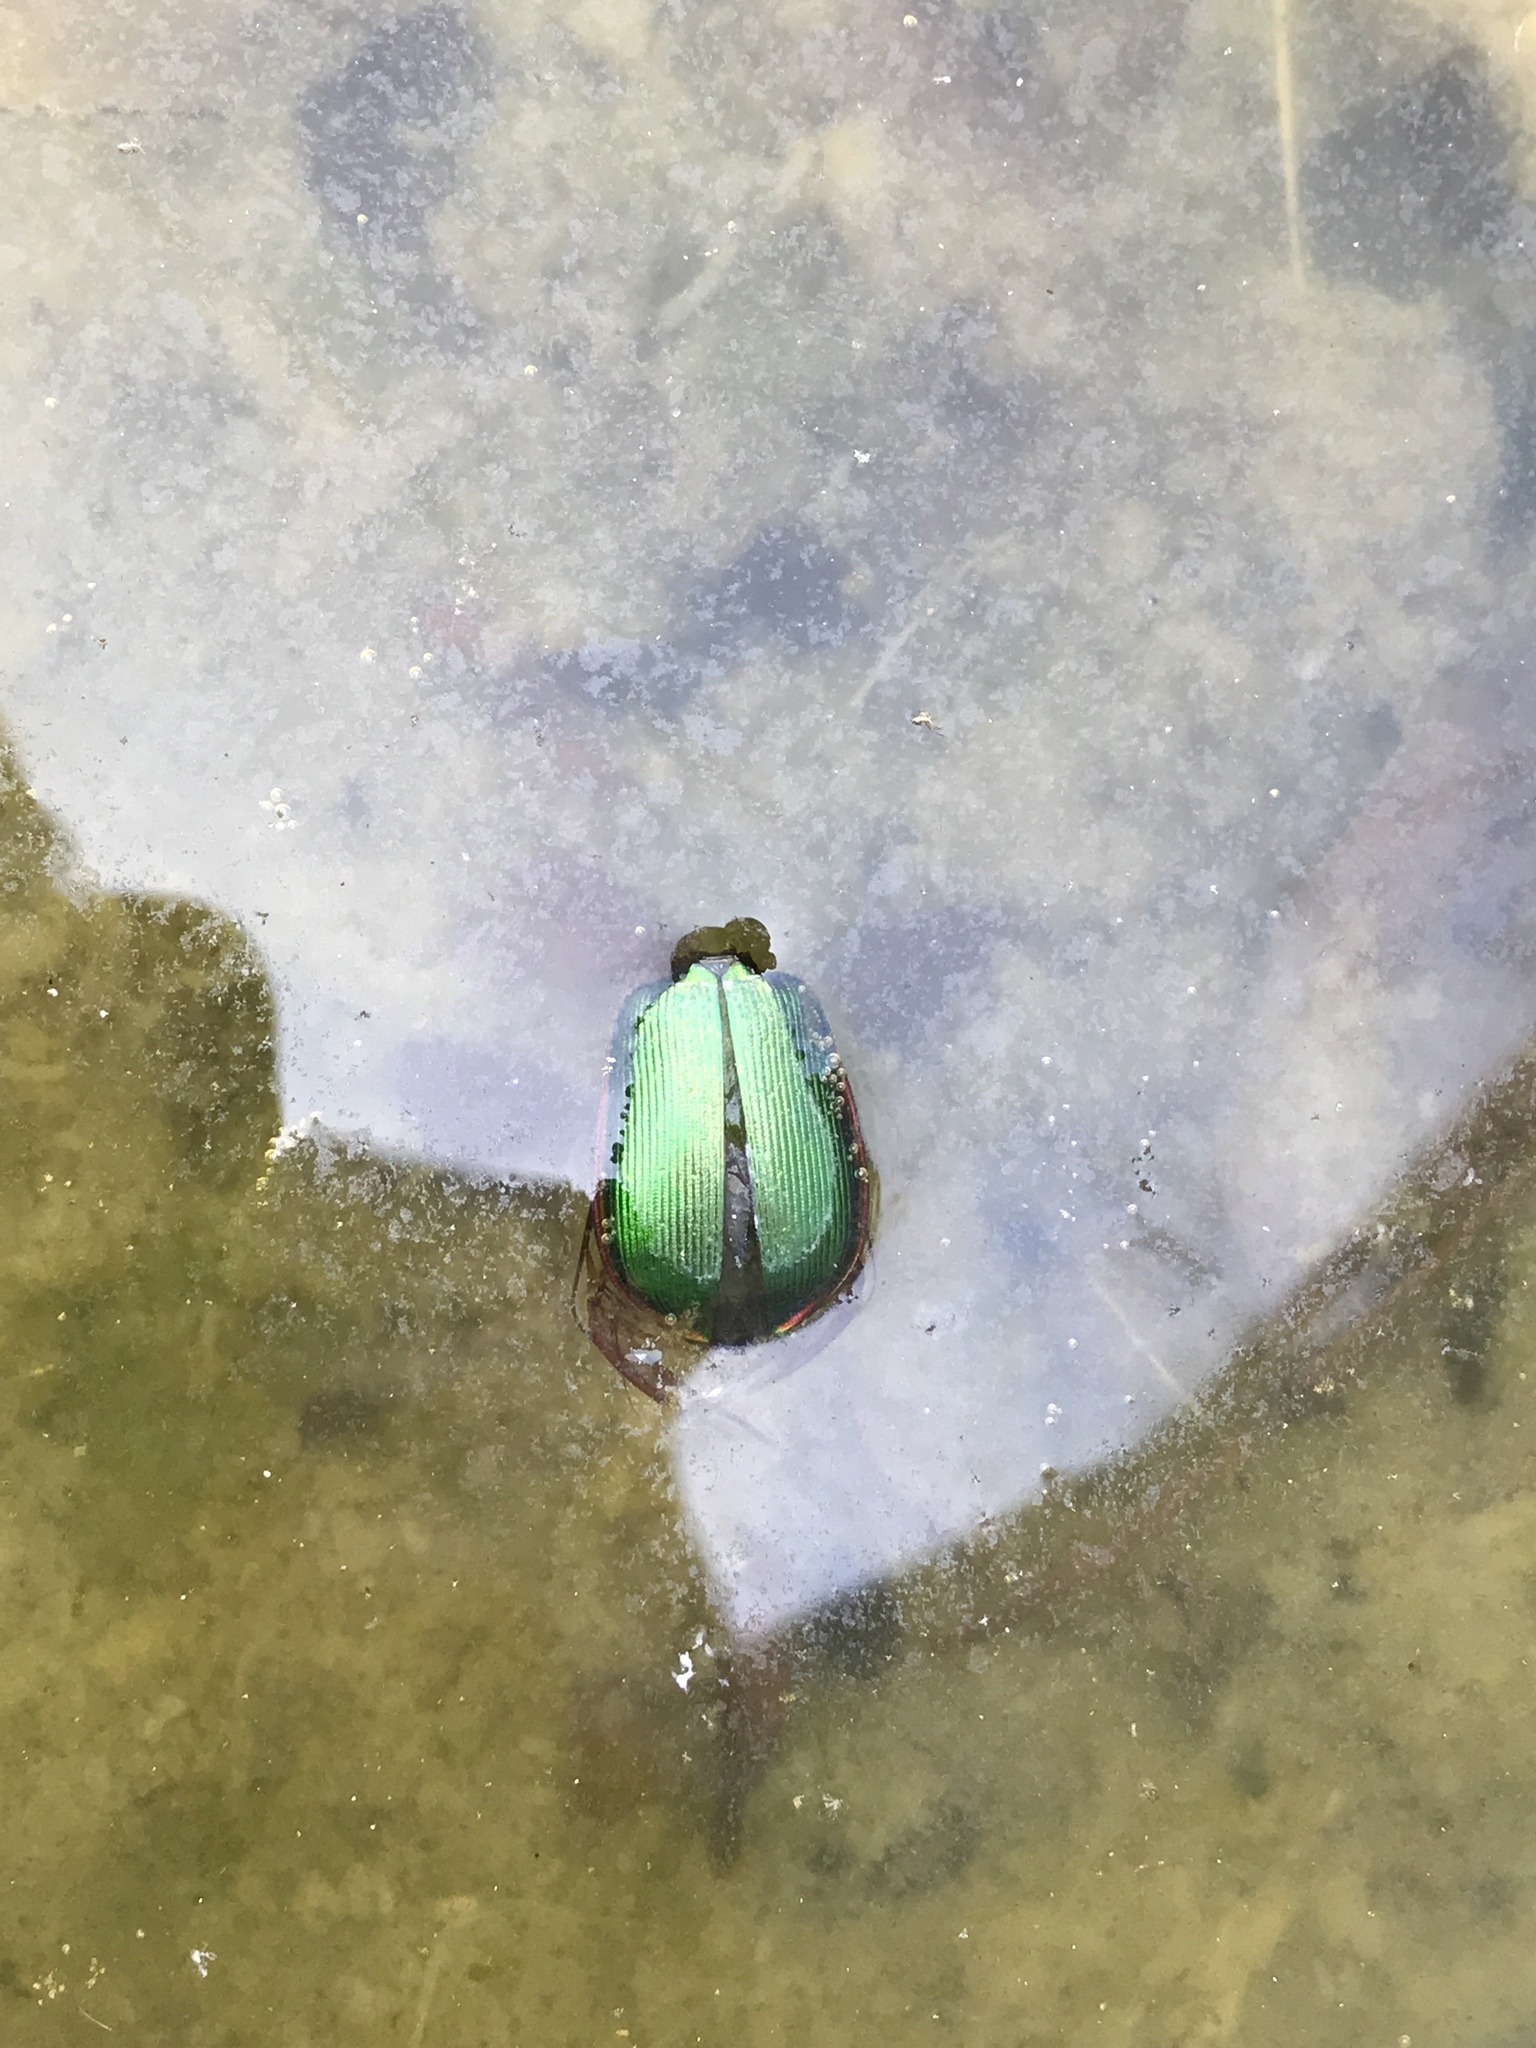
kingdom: Animalia
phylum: Arthropoda
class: Insecta
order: Coleoptera
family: Carabidae
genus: Calosoma
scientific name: Calosoma scrutator
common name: Fiery searcher beetle
